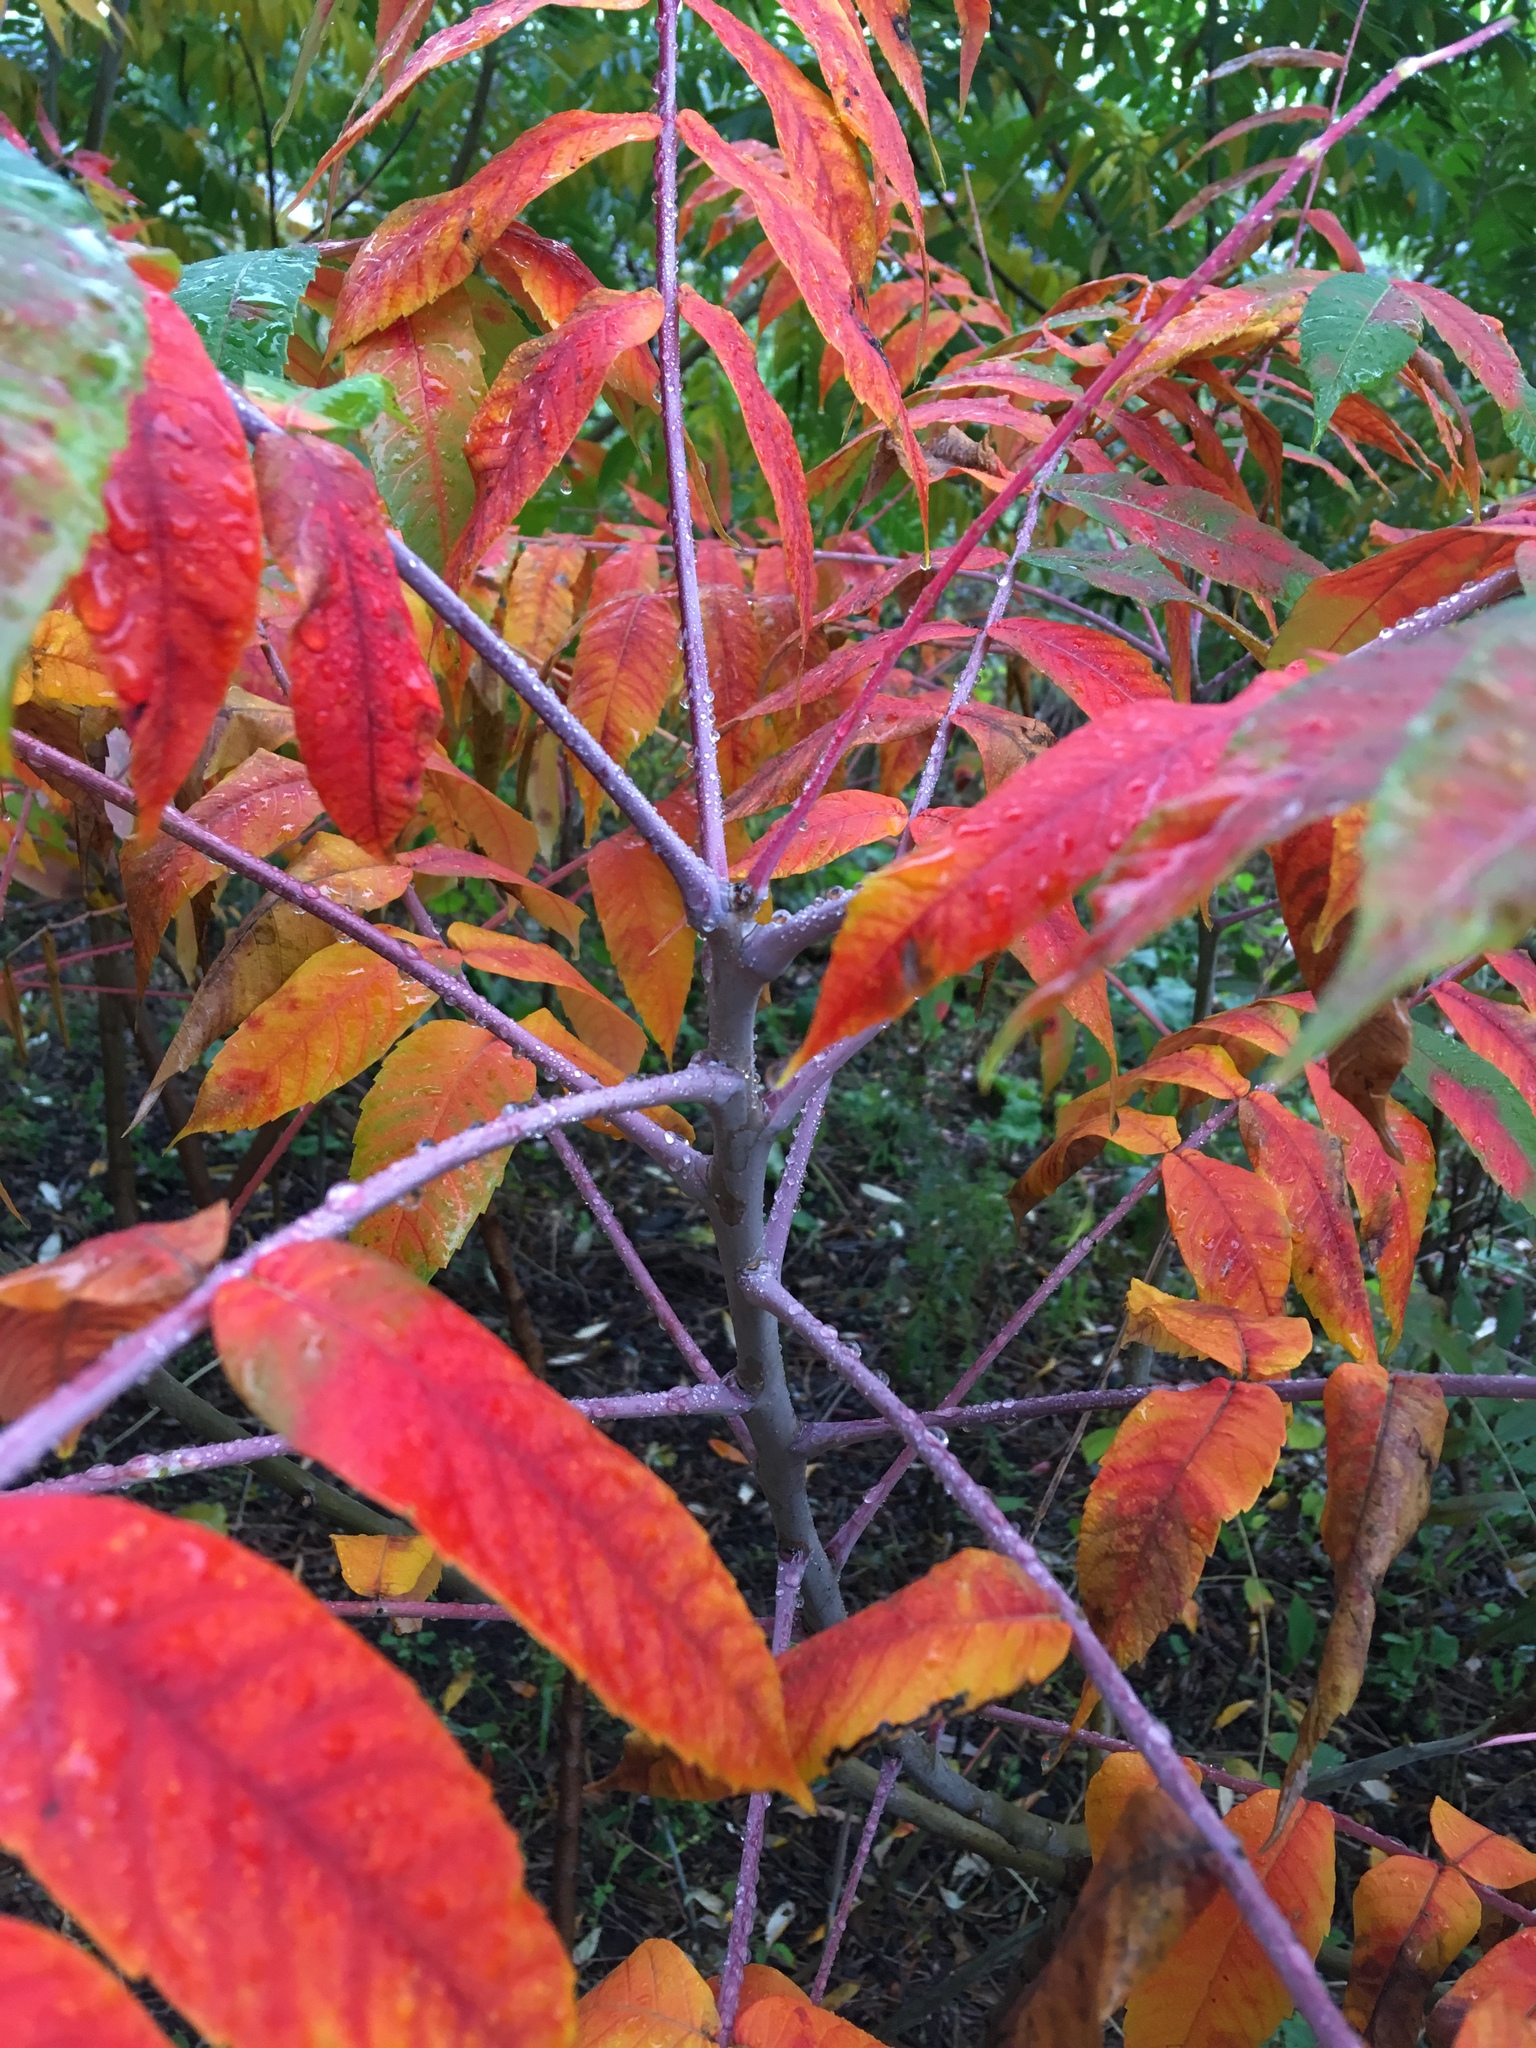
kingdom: Plantae
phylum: Tracheophyta
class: Magnoliopsida
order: Sapindales
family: Anacardiaceae
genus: Rhus
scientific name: Rhus glabra
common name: Scarlet sumac
